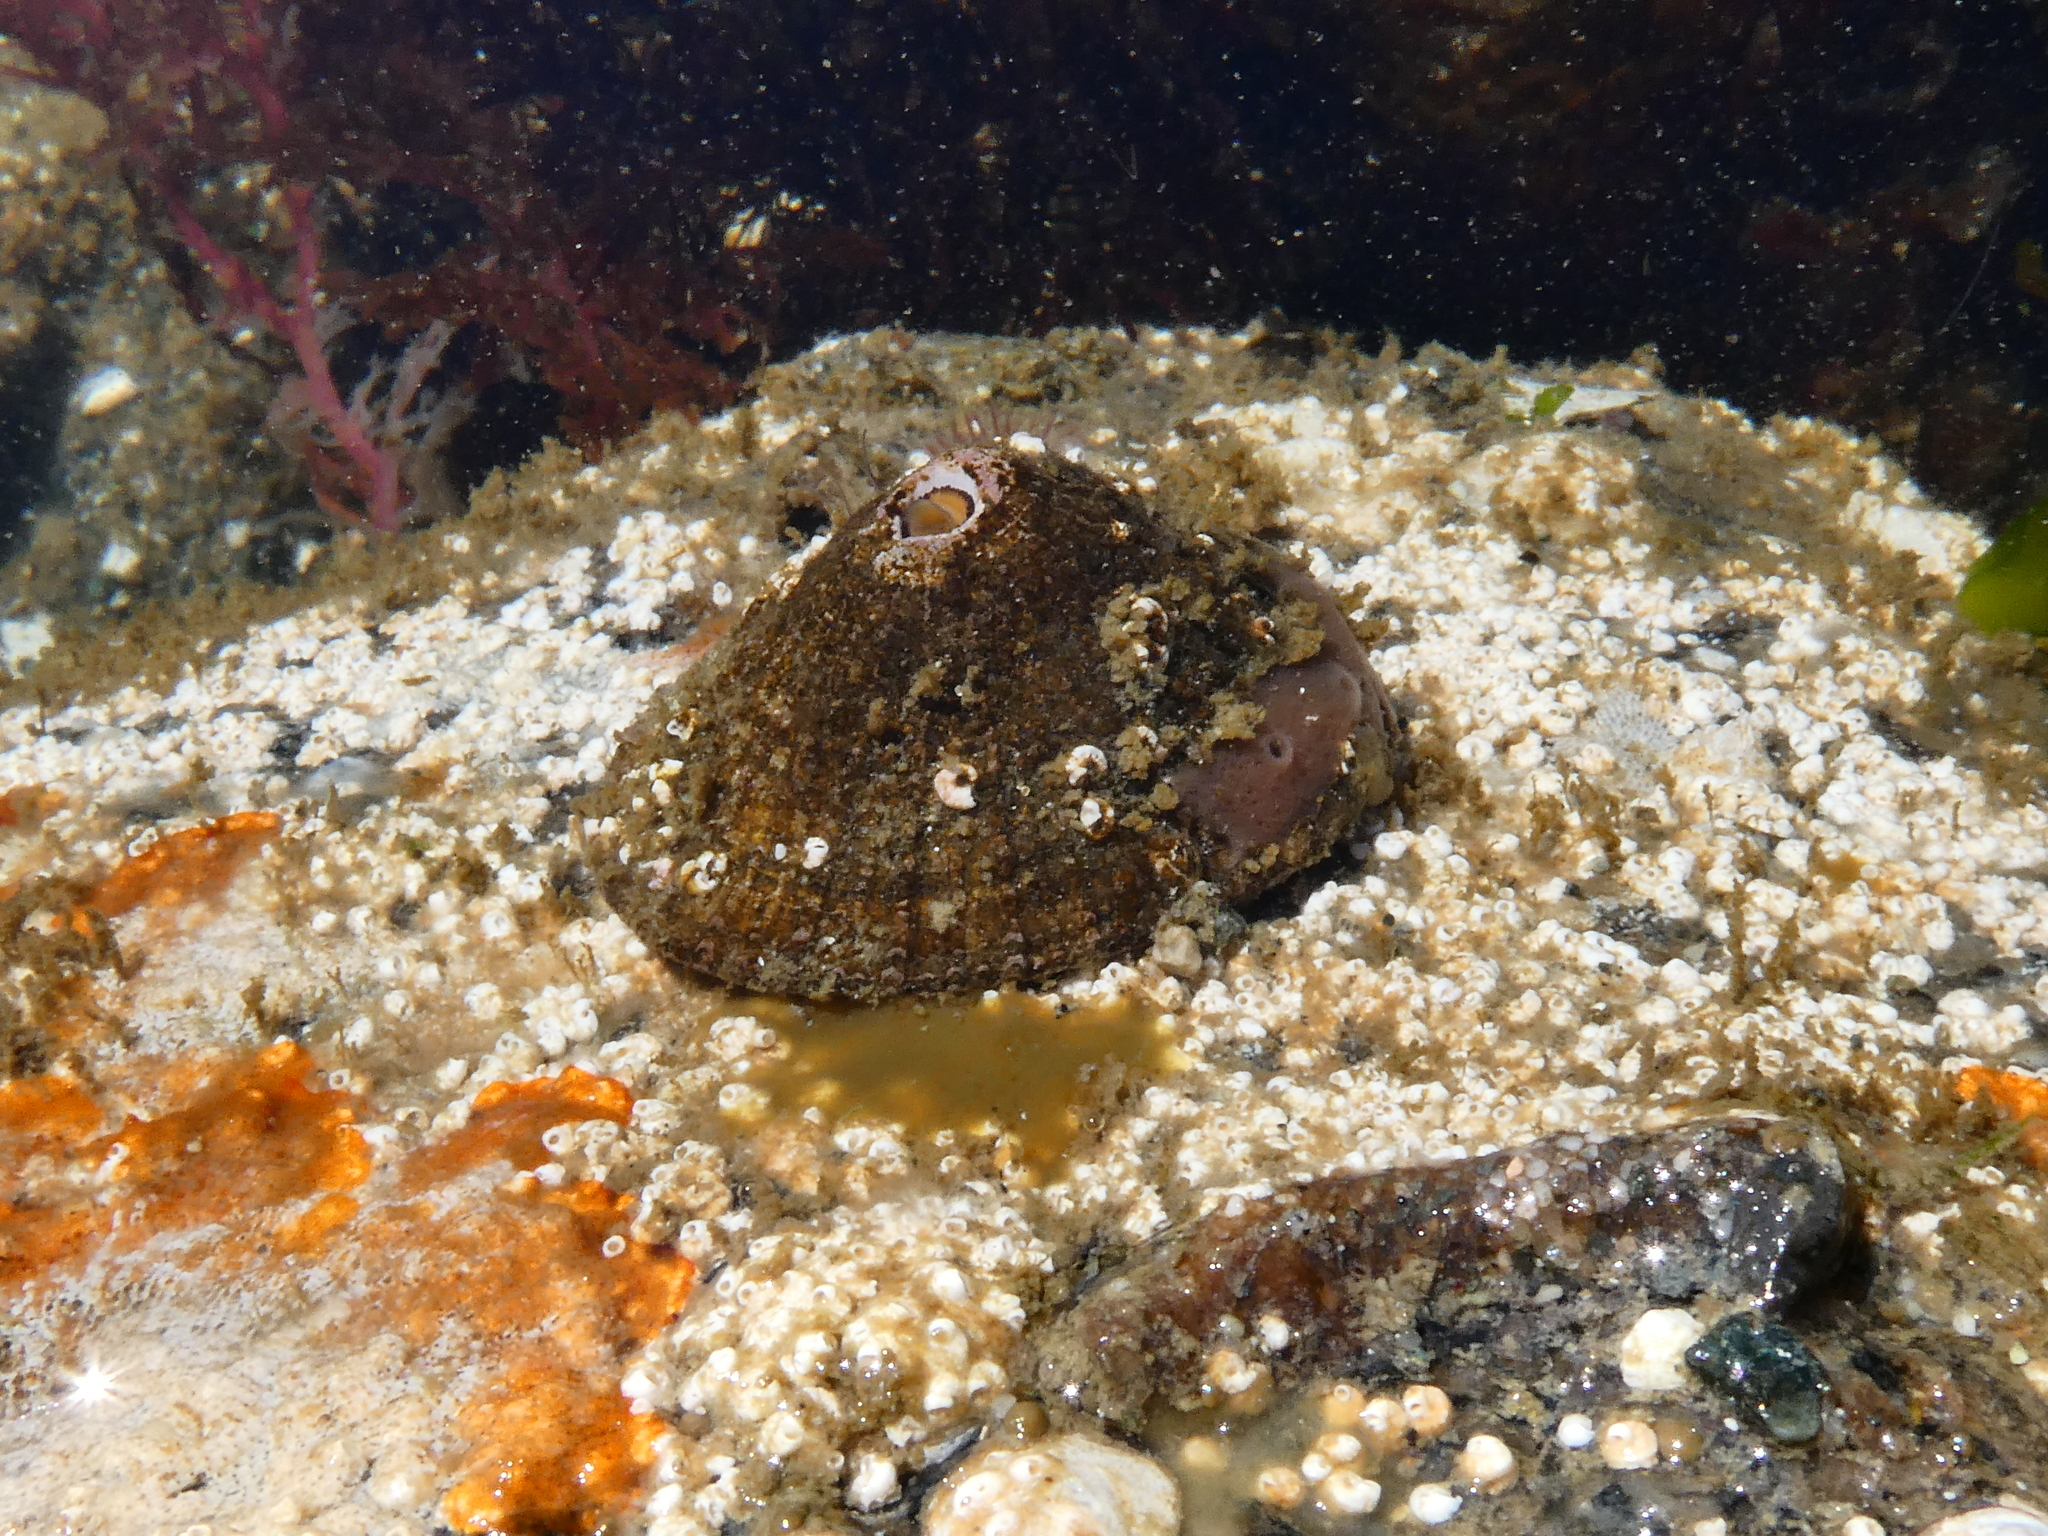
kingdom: Animalia
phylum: Mollusca
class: Gastropoda
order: Lepetellida
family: Fissurellidae
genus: Diodora
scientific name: Diodora aspera
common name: Rough keyhole limpet
